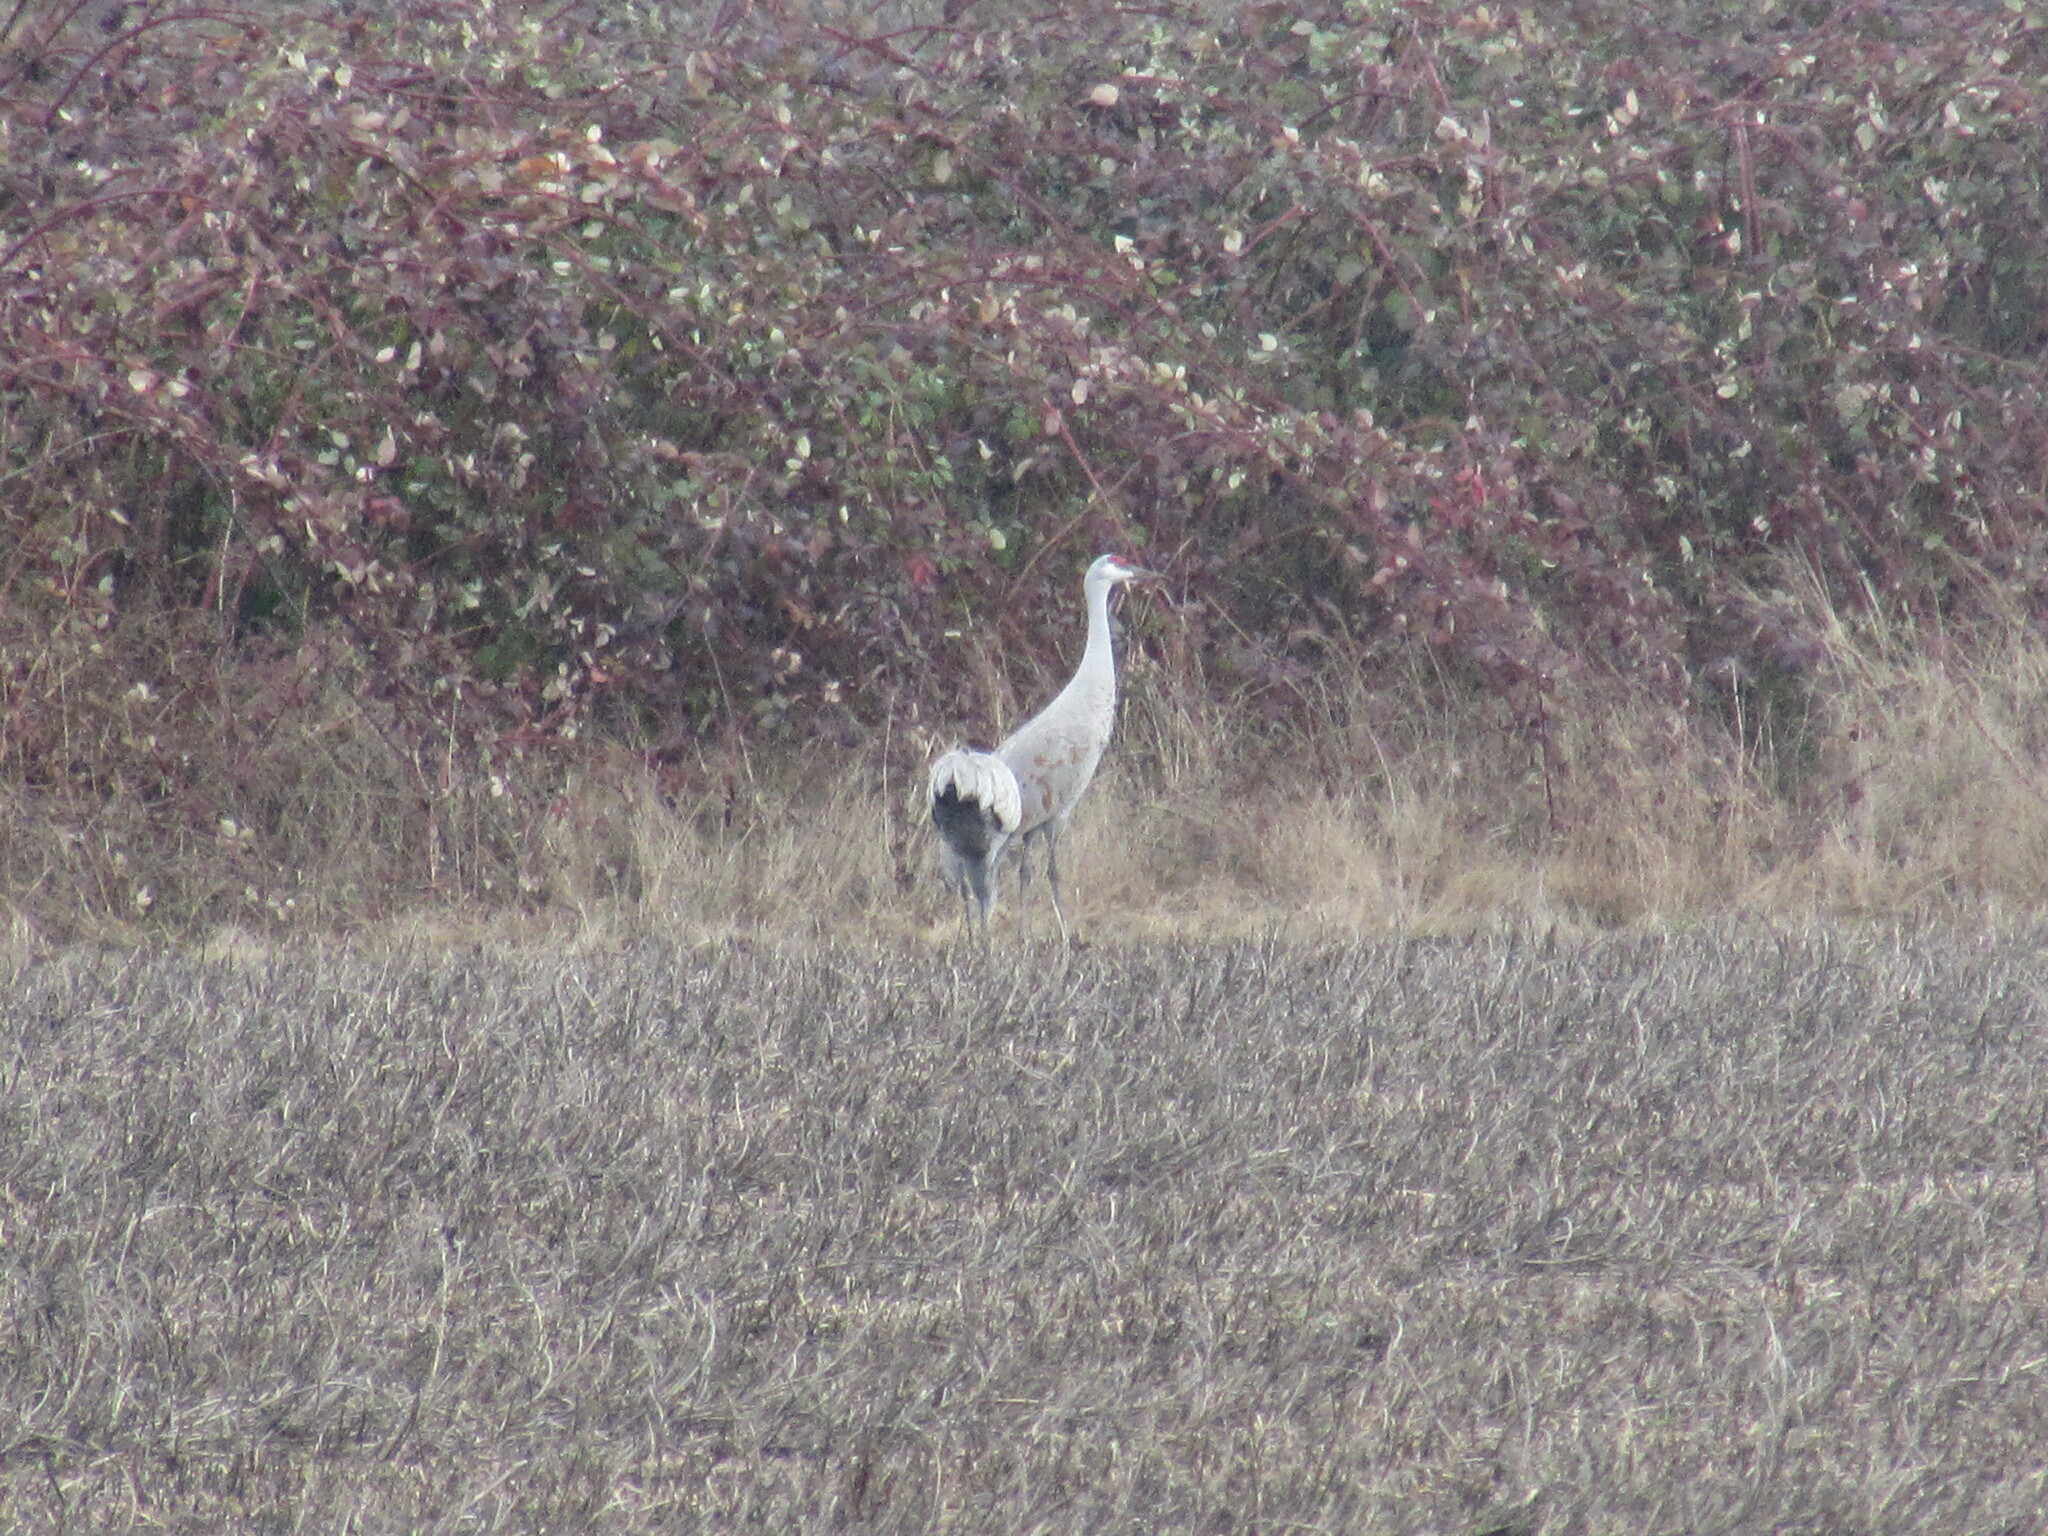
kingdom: Animalia
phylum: Chordata
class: Aves
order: Gruiformes
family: Gruidae
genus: Grus
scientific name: Grus canadensis
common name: Sandhill crane
